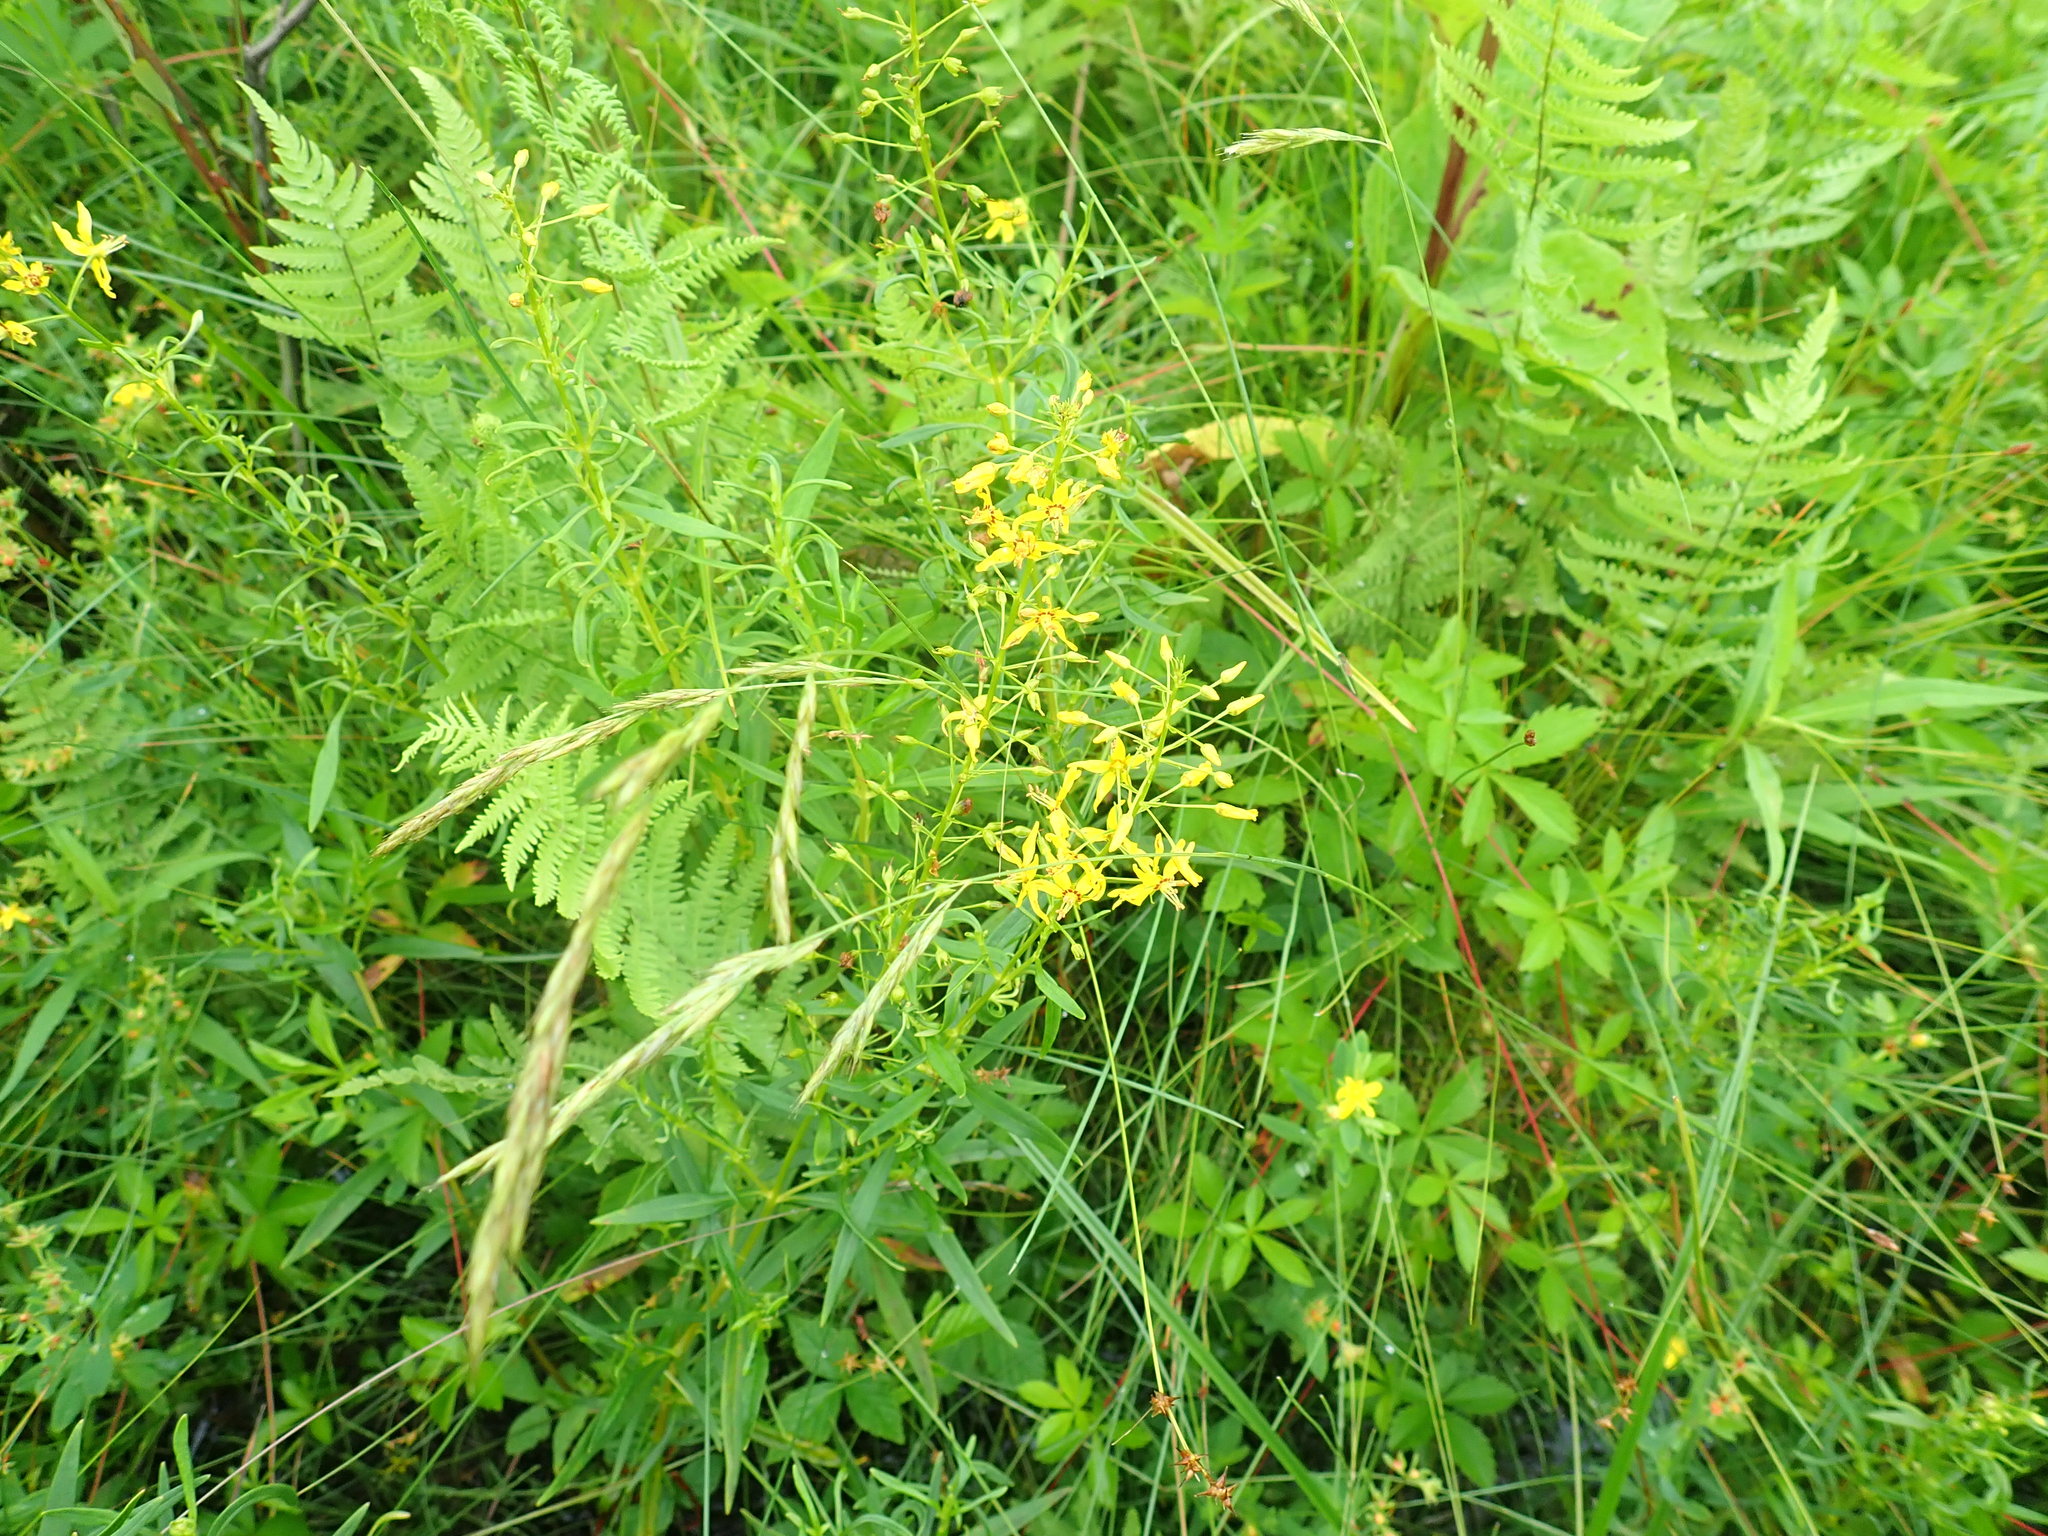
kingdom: Plantae
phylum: Tracheophyta
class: Magnoliopsida
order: Ericales
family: Primulaceae
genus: Lysimachia
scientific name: Lysimachia terrestris
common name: Lake loosestrife
